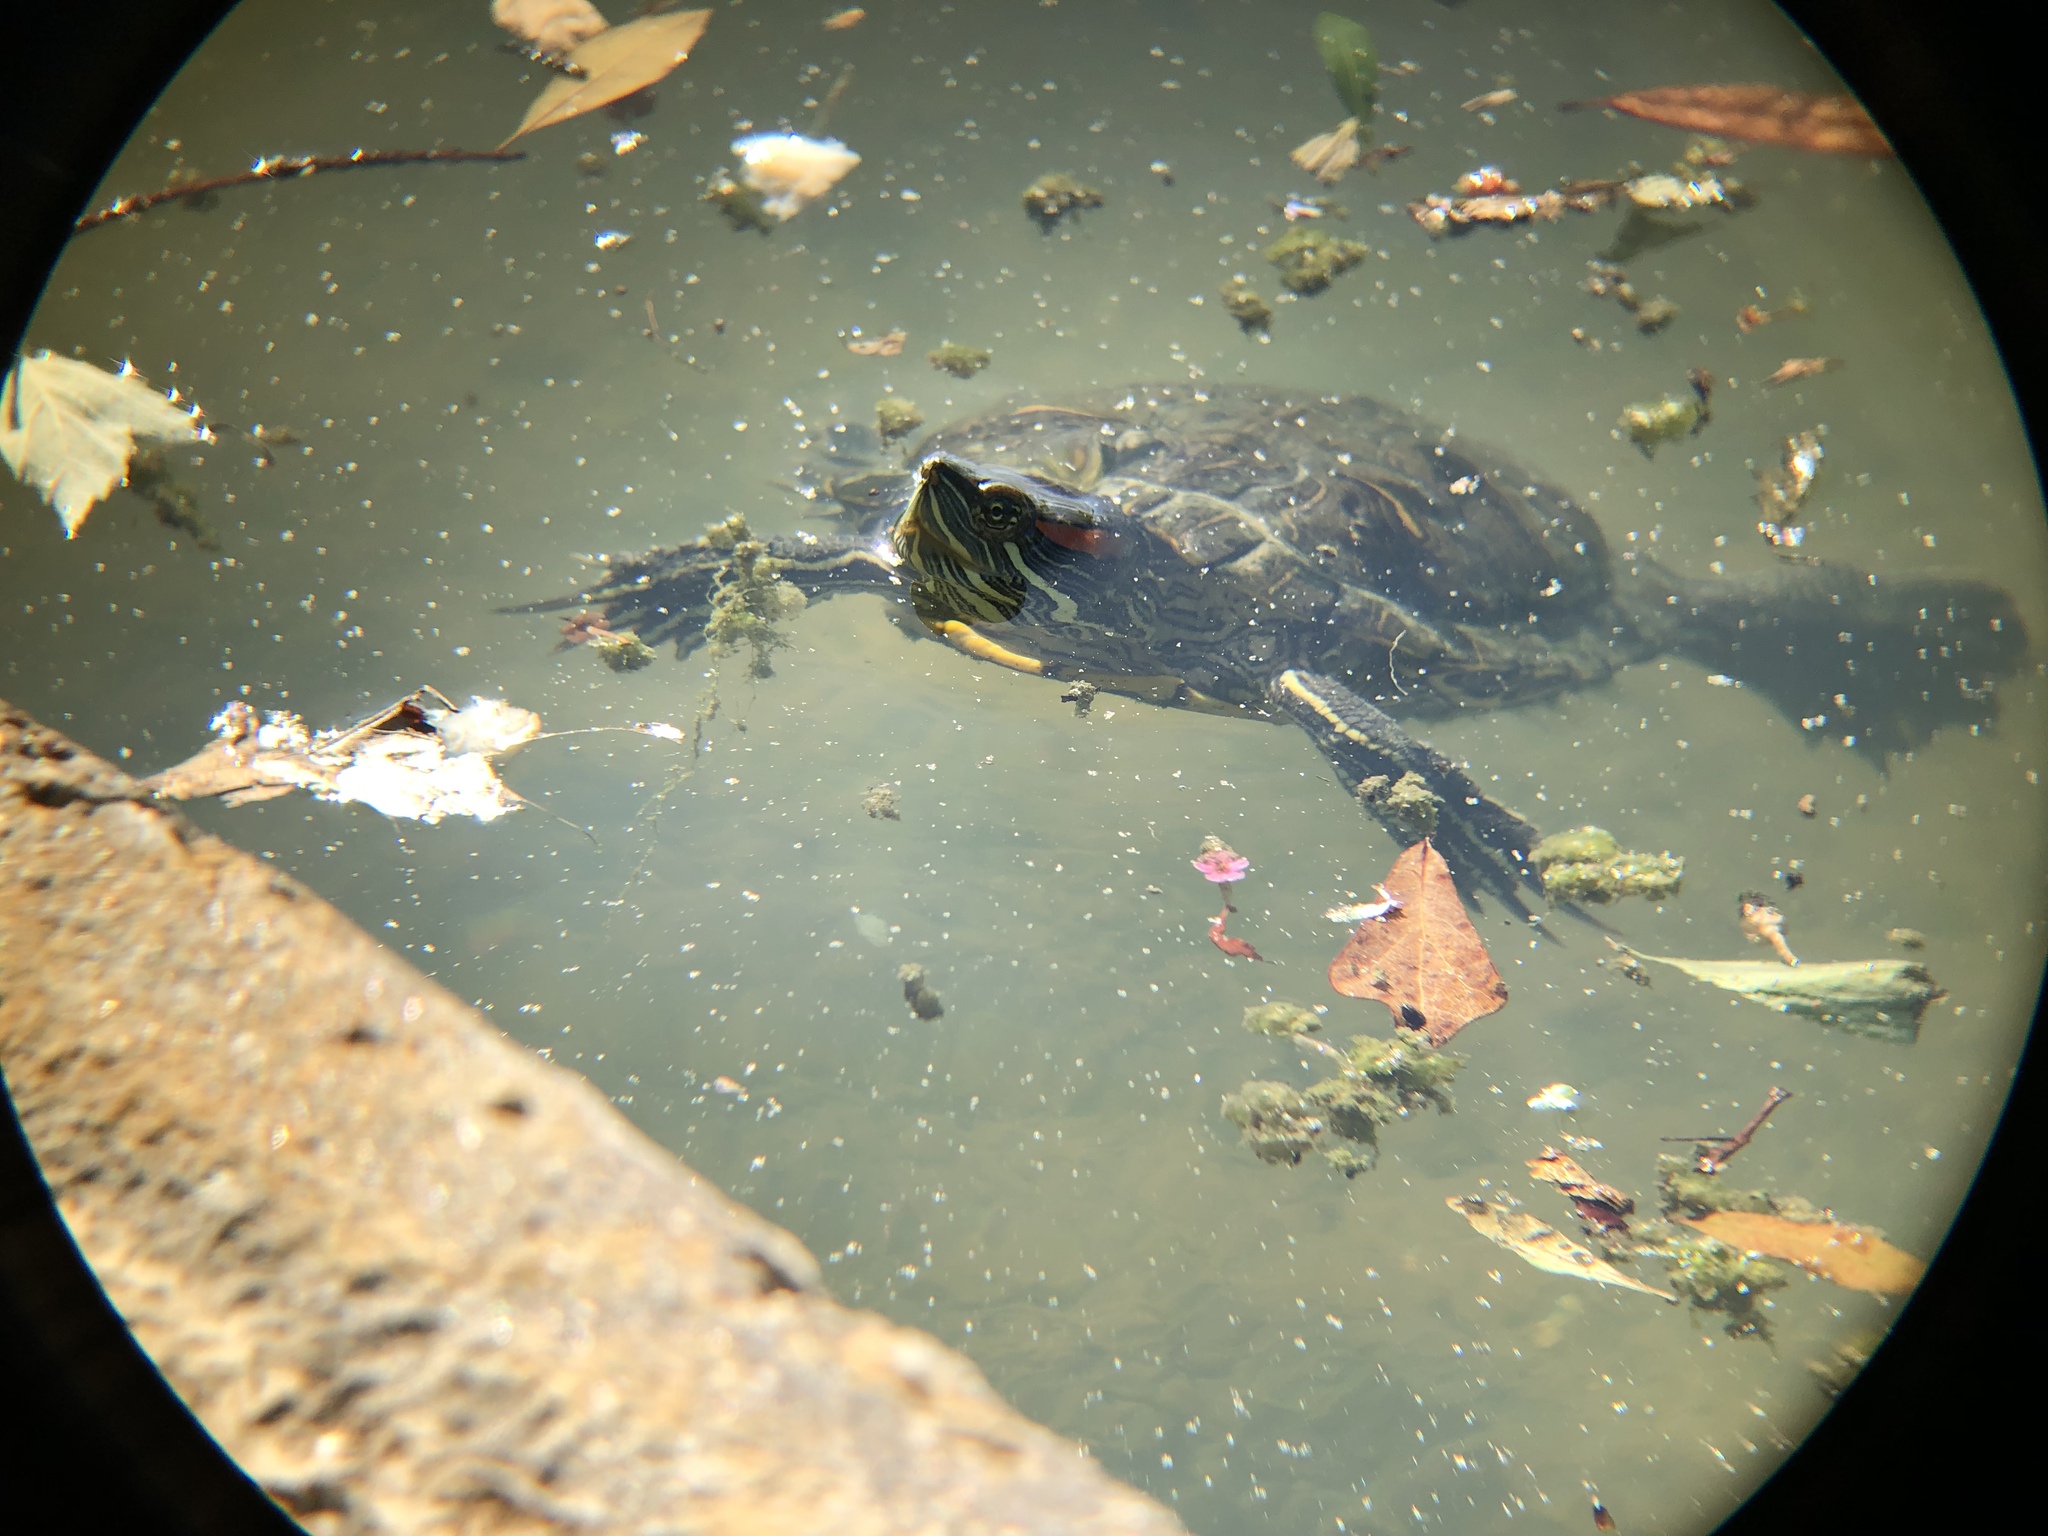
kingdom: Animalia
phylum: Chordata
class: Testudines
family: Emydidae
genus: Trachemys
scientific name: Trachemys scripta
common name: Slider
